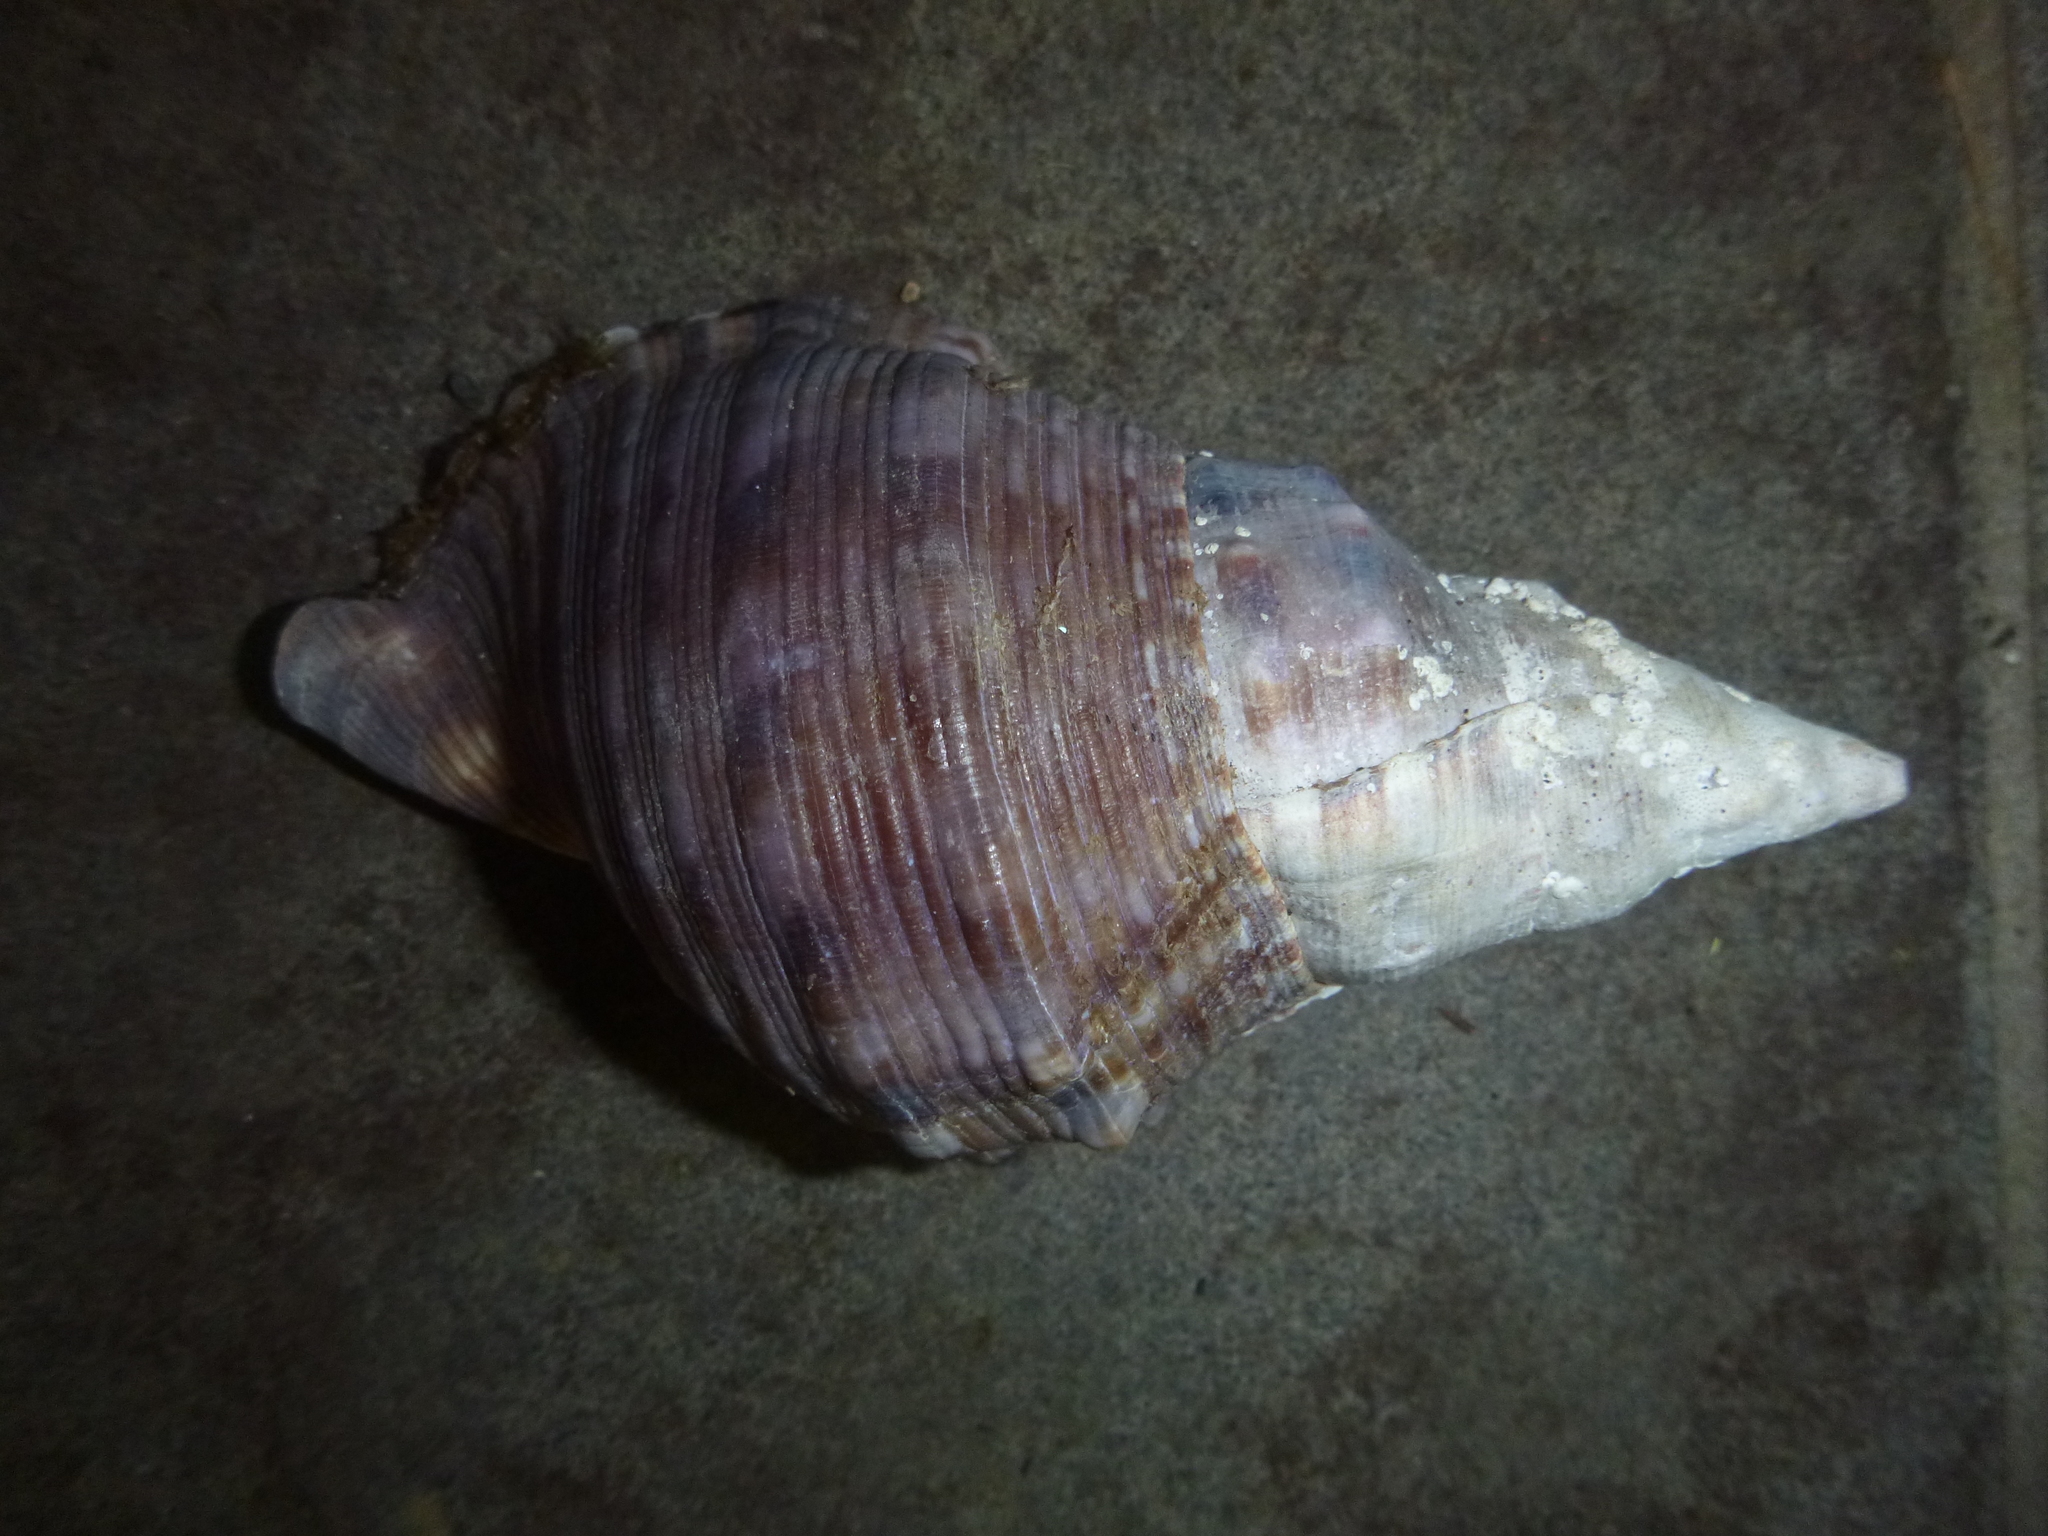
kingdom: Animalia
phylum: Mollusca
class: Gastropoda
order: Littorinimorpha
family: Charoniidae
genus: Charonia
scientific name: Charonia lampas
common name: Knobbed triton
